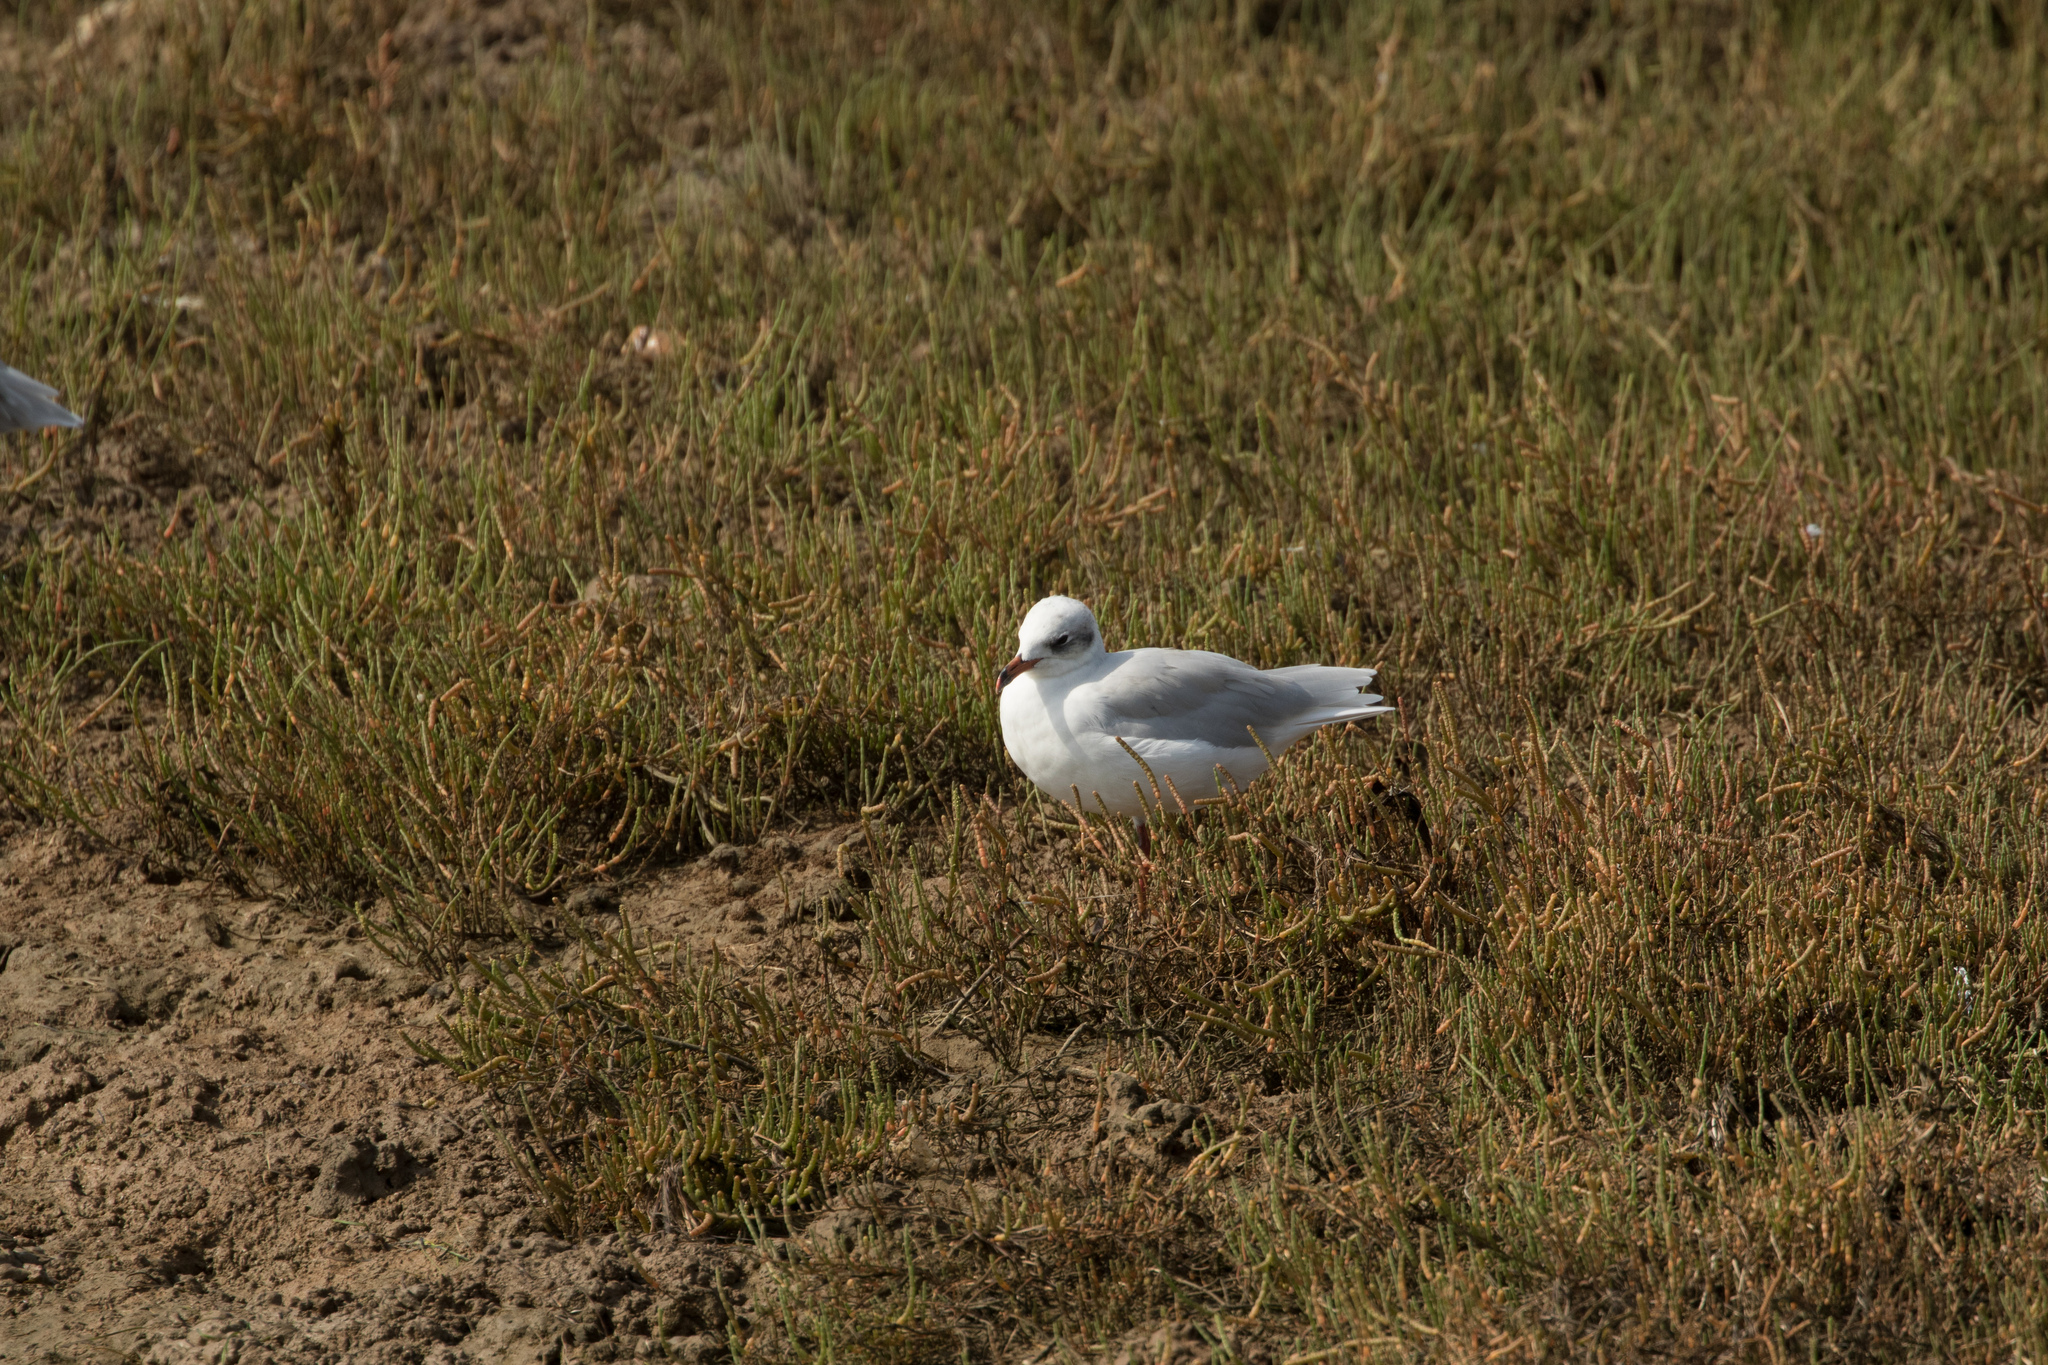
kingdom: Animalia
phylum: Chordata
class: Aves
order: Charadriiformes
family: Laridae
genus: Ichthyaetus
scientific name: Ichthyaetus melanocephalus
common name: Mediterranean gull
